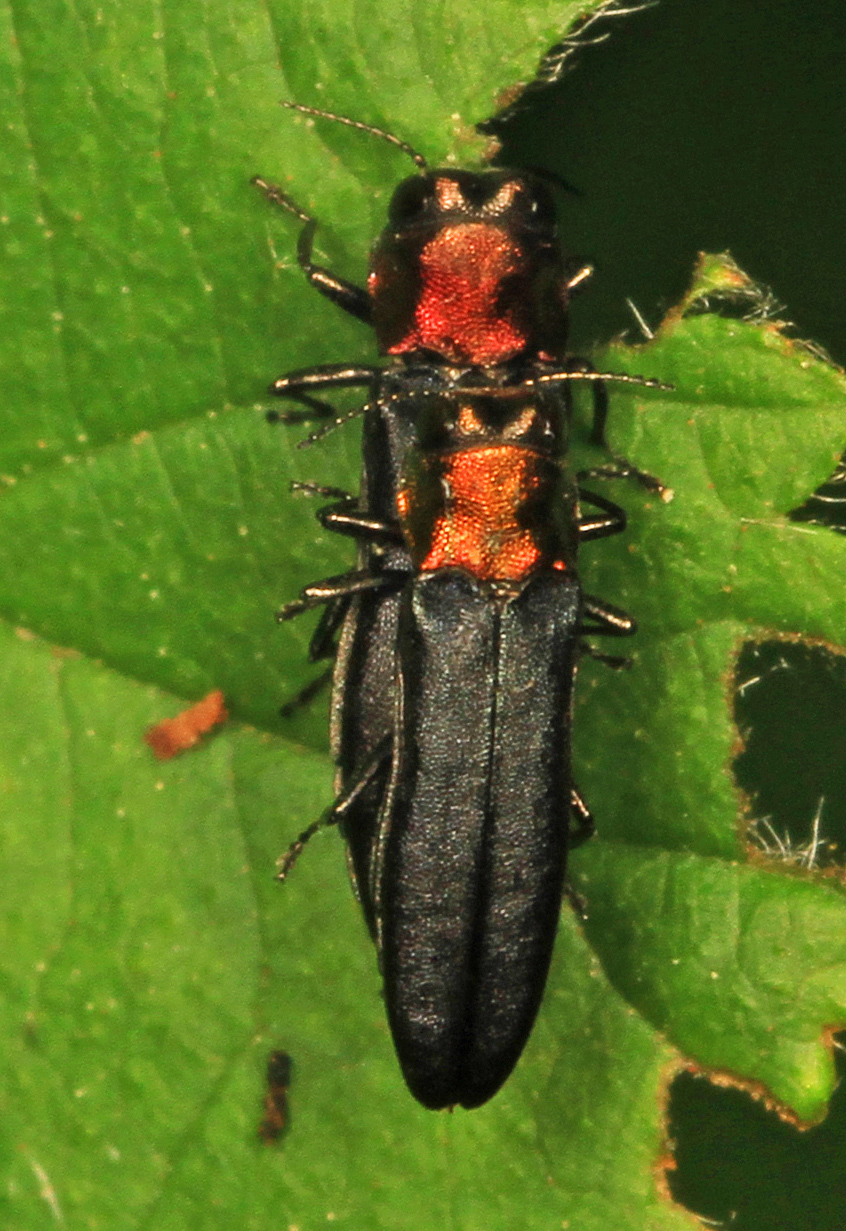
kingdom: Animalia
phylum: Arthropoda
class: Insecta
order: Coleoptera
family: Buprestidae
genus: Agrilus
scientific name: Agrilus ruficollis
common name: Red-necked cane borer beetle
